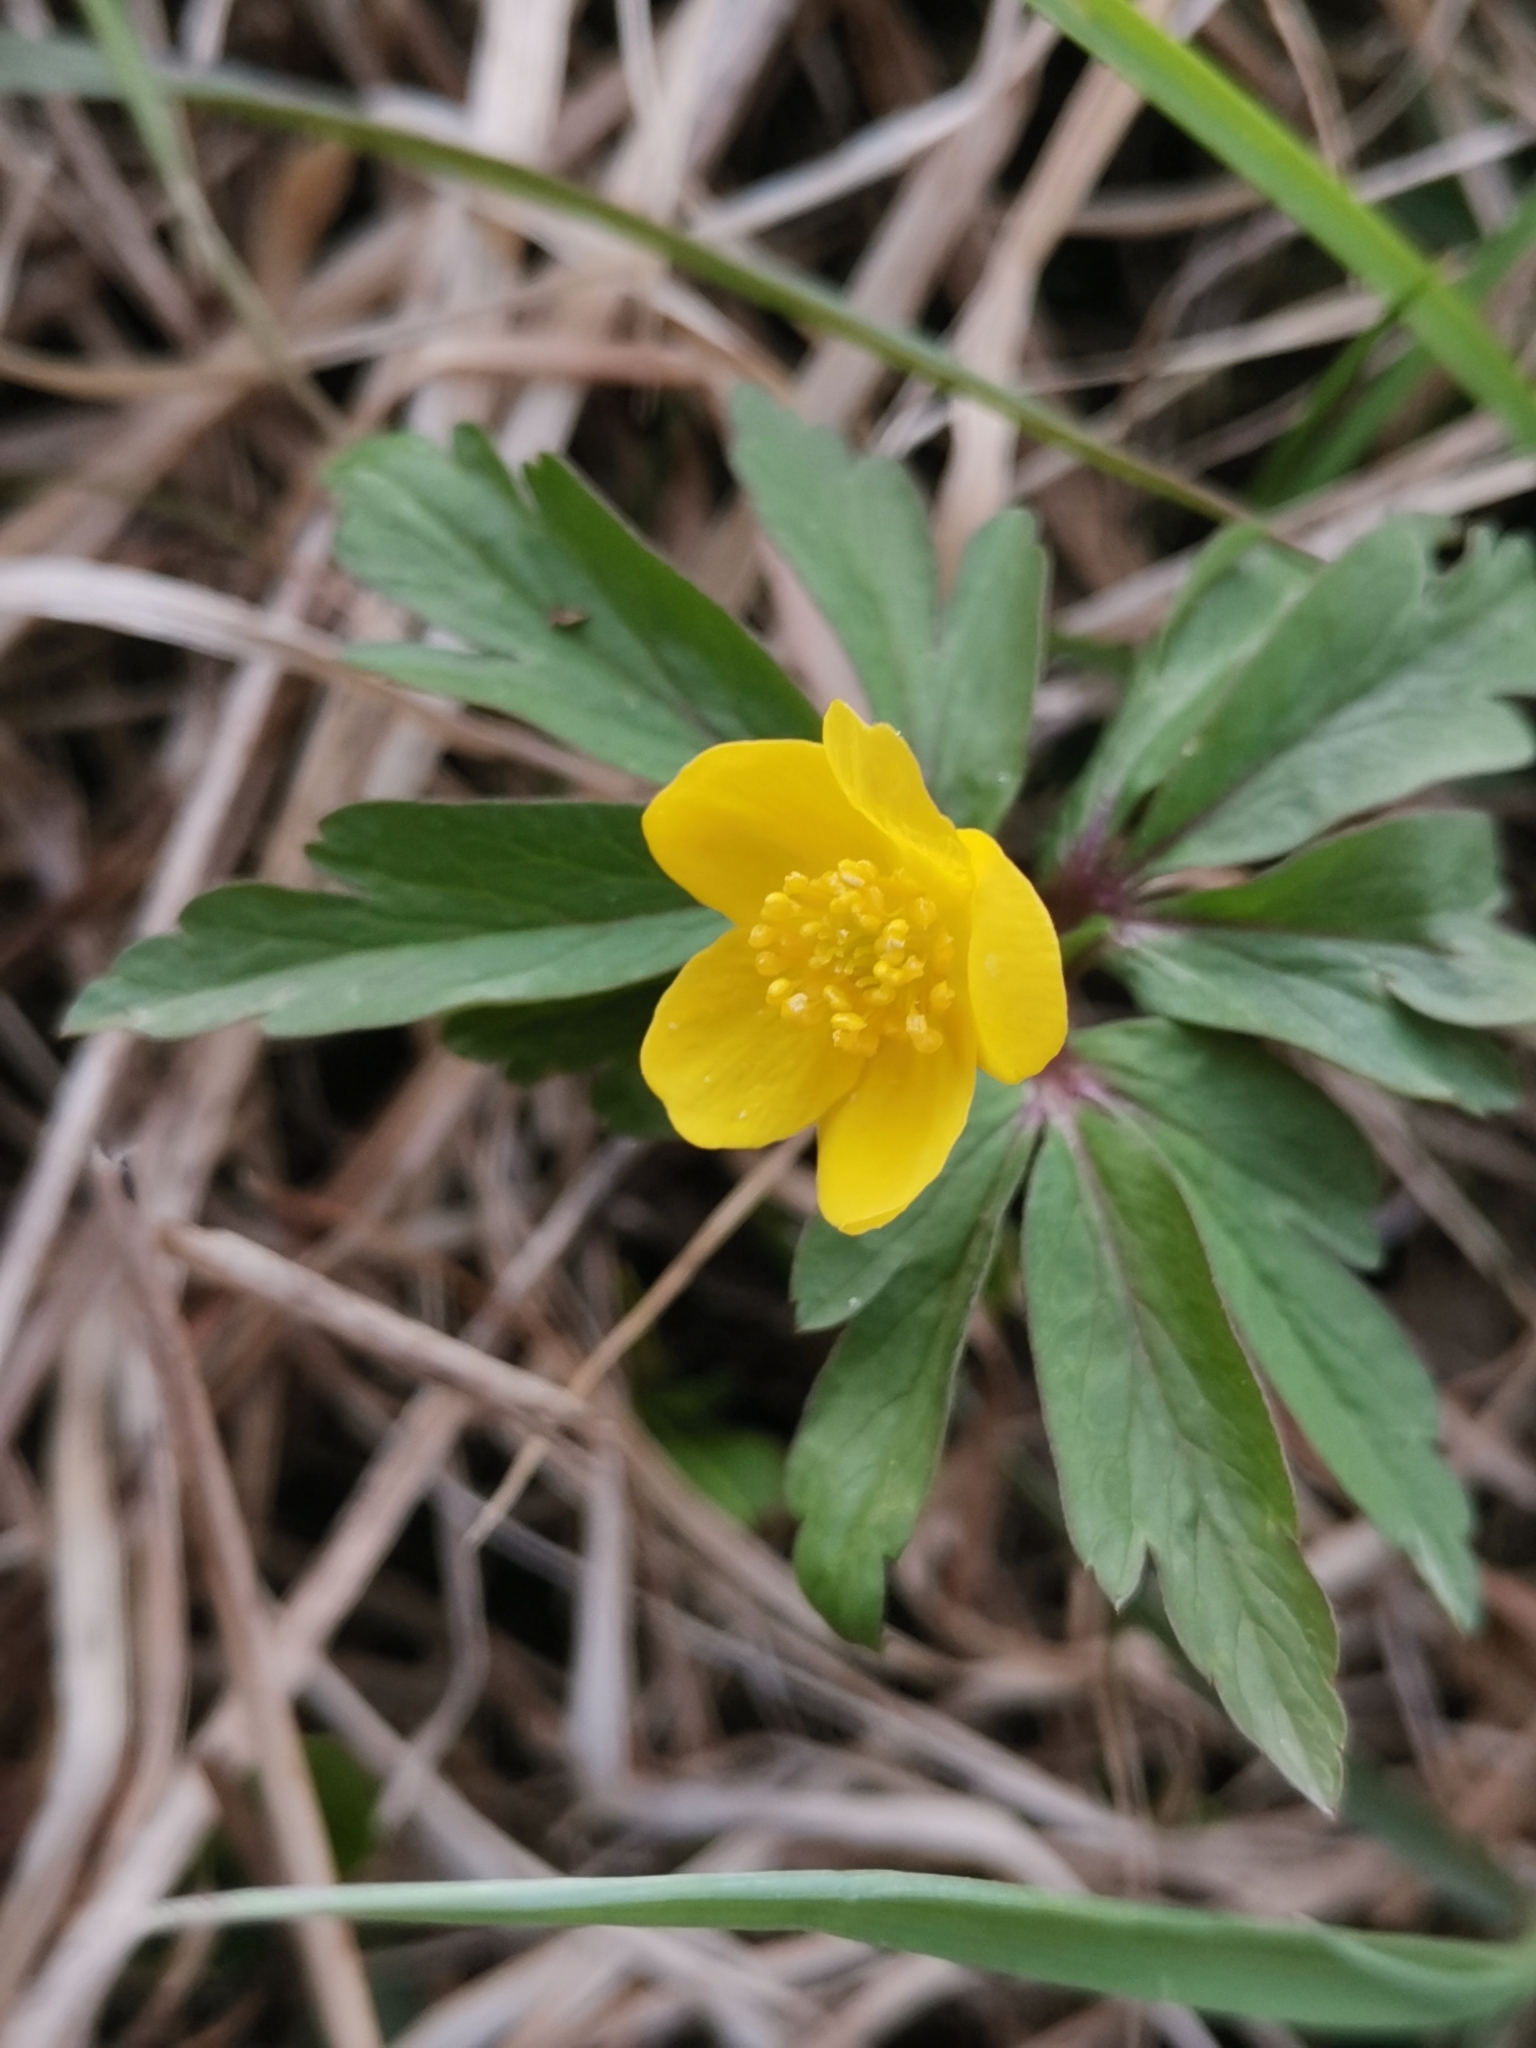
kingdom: Plantae
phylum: Tracheophyta
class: Magnoliopsida
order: Ranunculales
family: Ranunculaceae
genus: Anemone
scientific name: Anemone ranunculoides
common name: Yellow anemone
